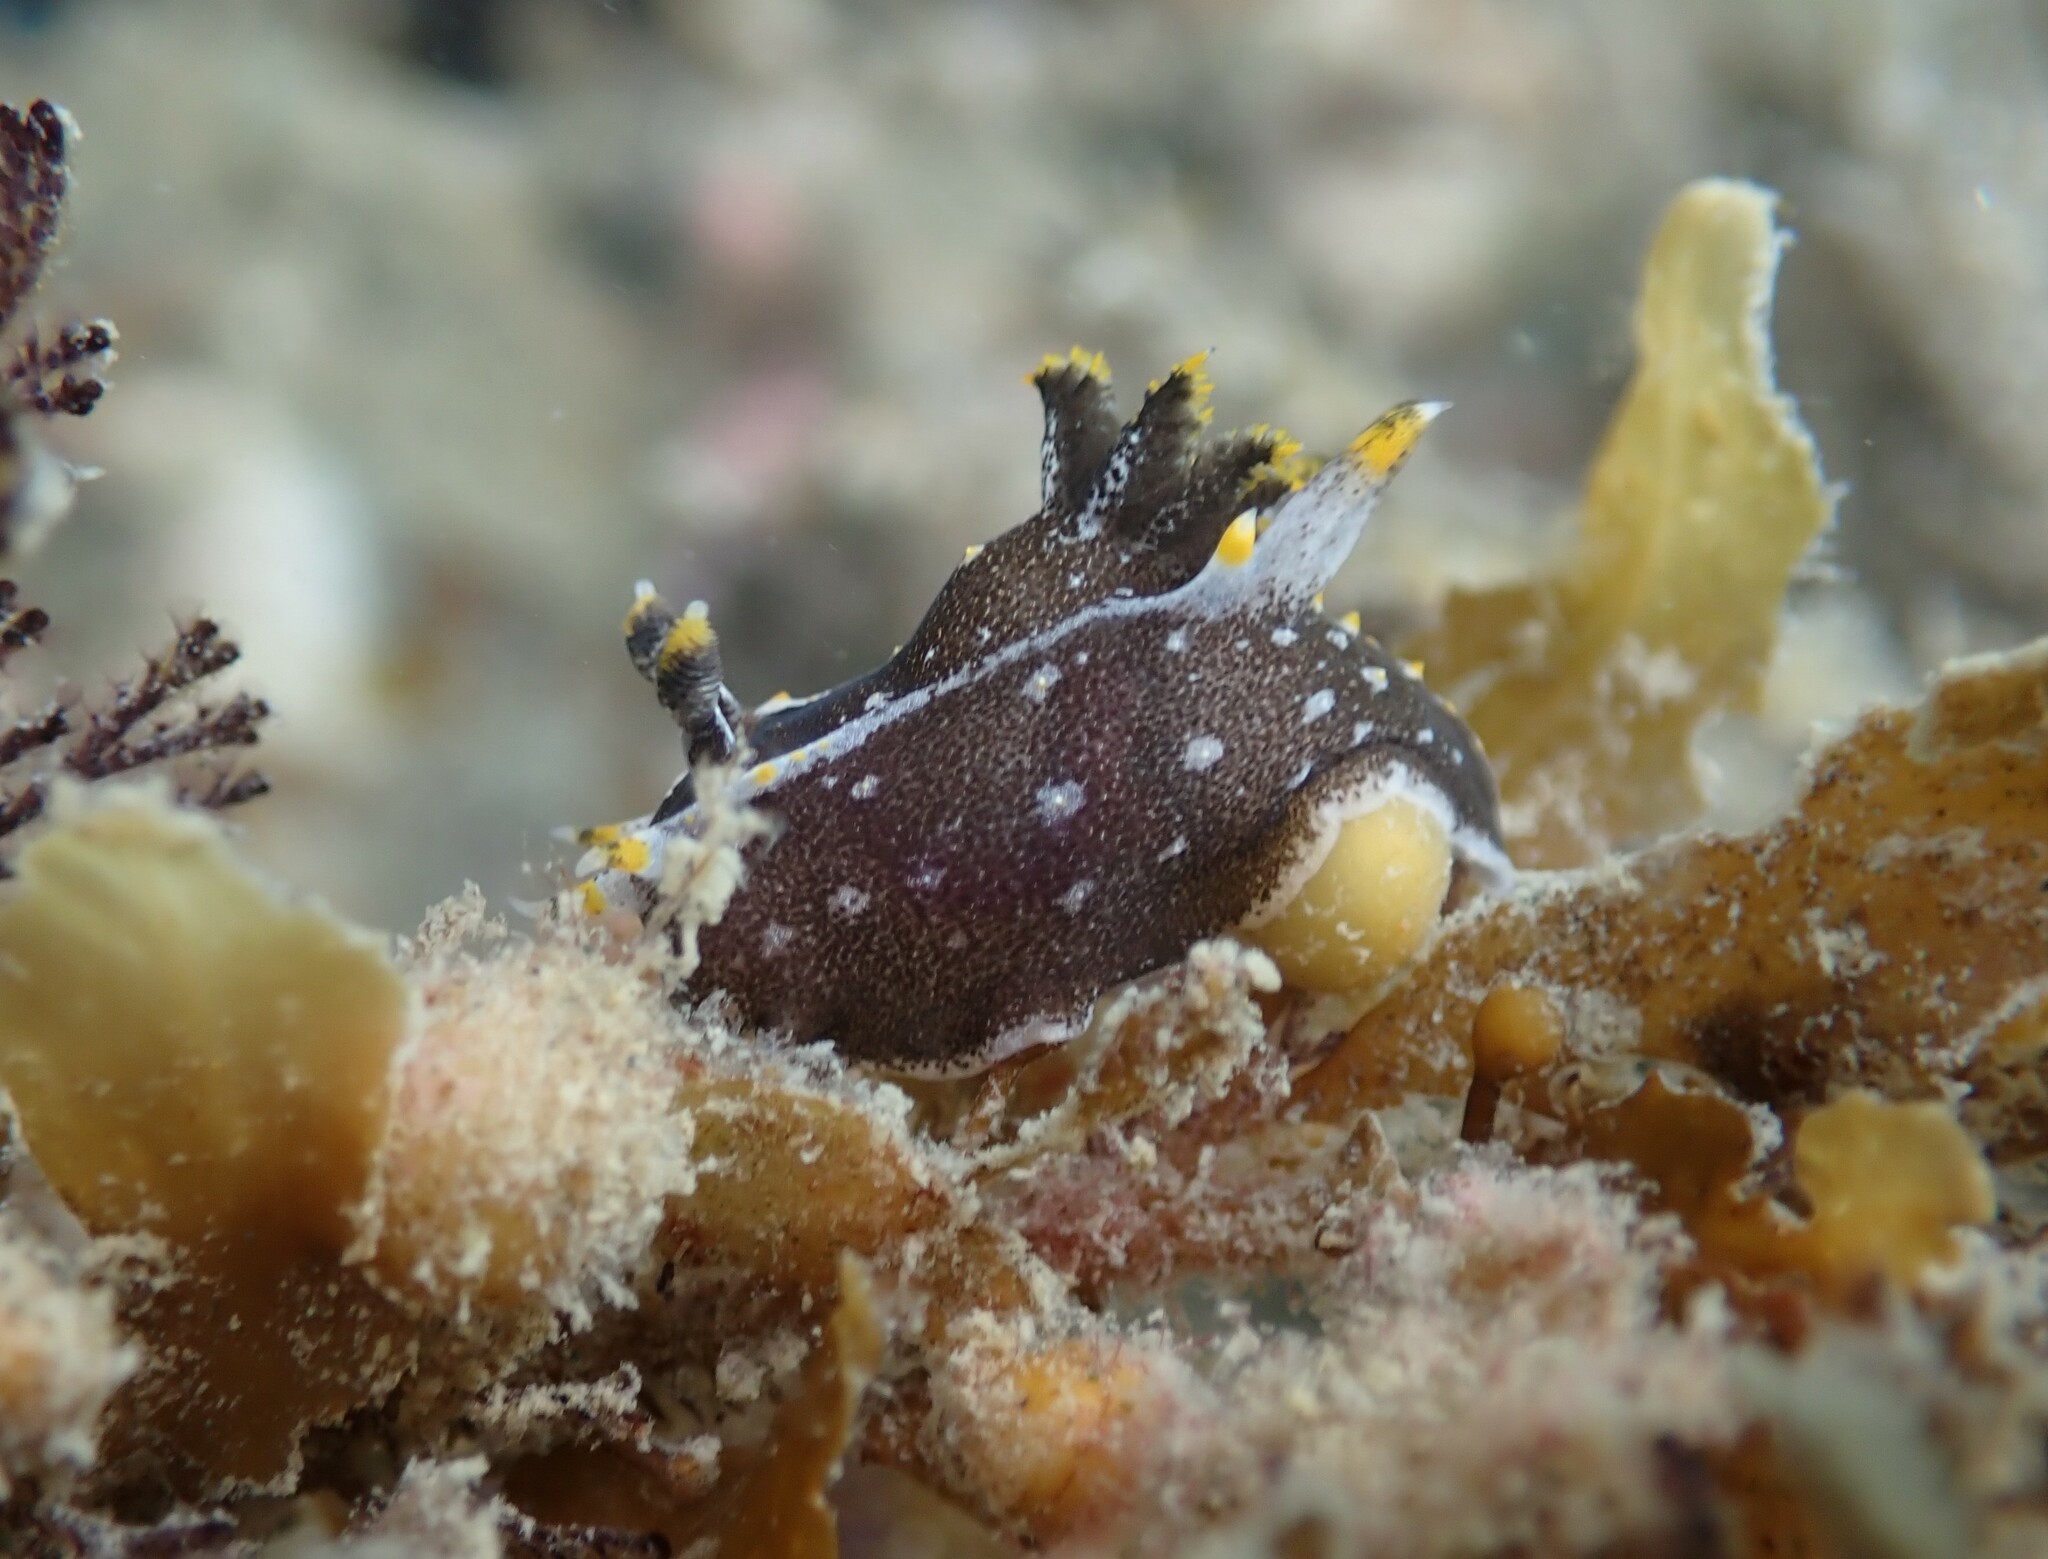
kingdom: Animalia
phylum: Mollusca
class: Gastropoda
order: Nudibranchia
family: Polyceridae
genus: Polycera
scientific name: Polycera hedgpethi
